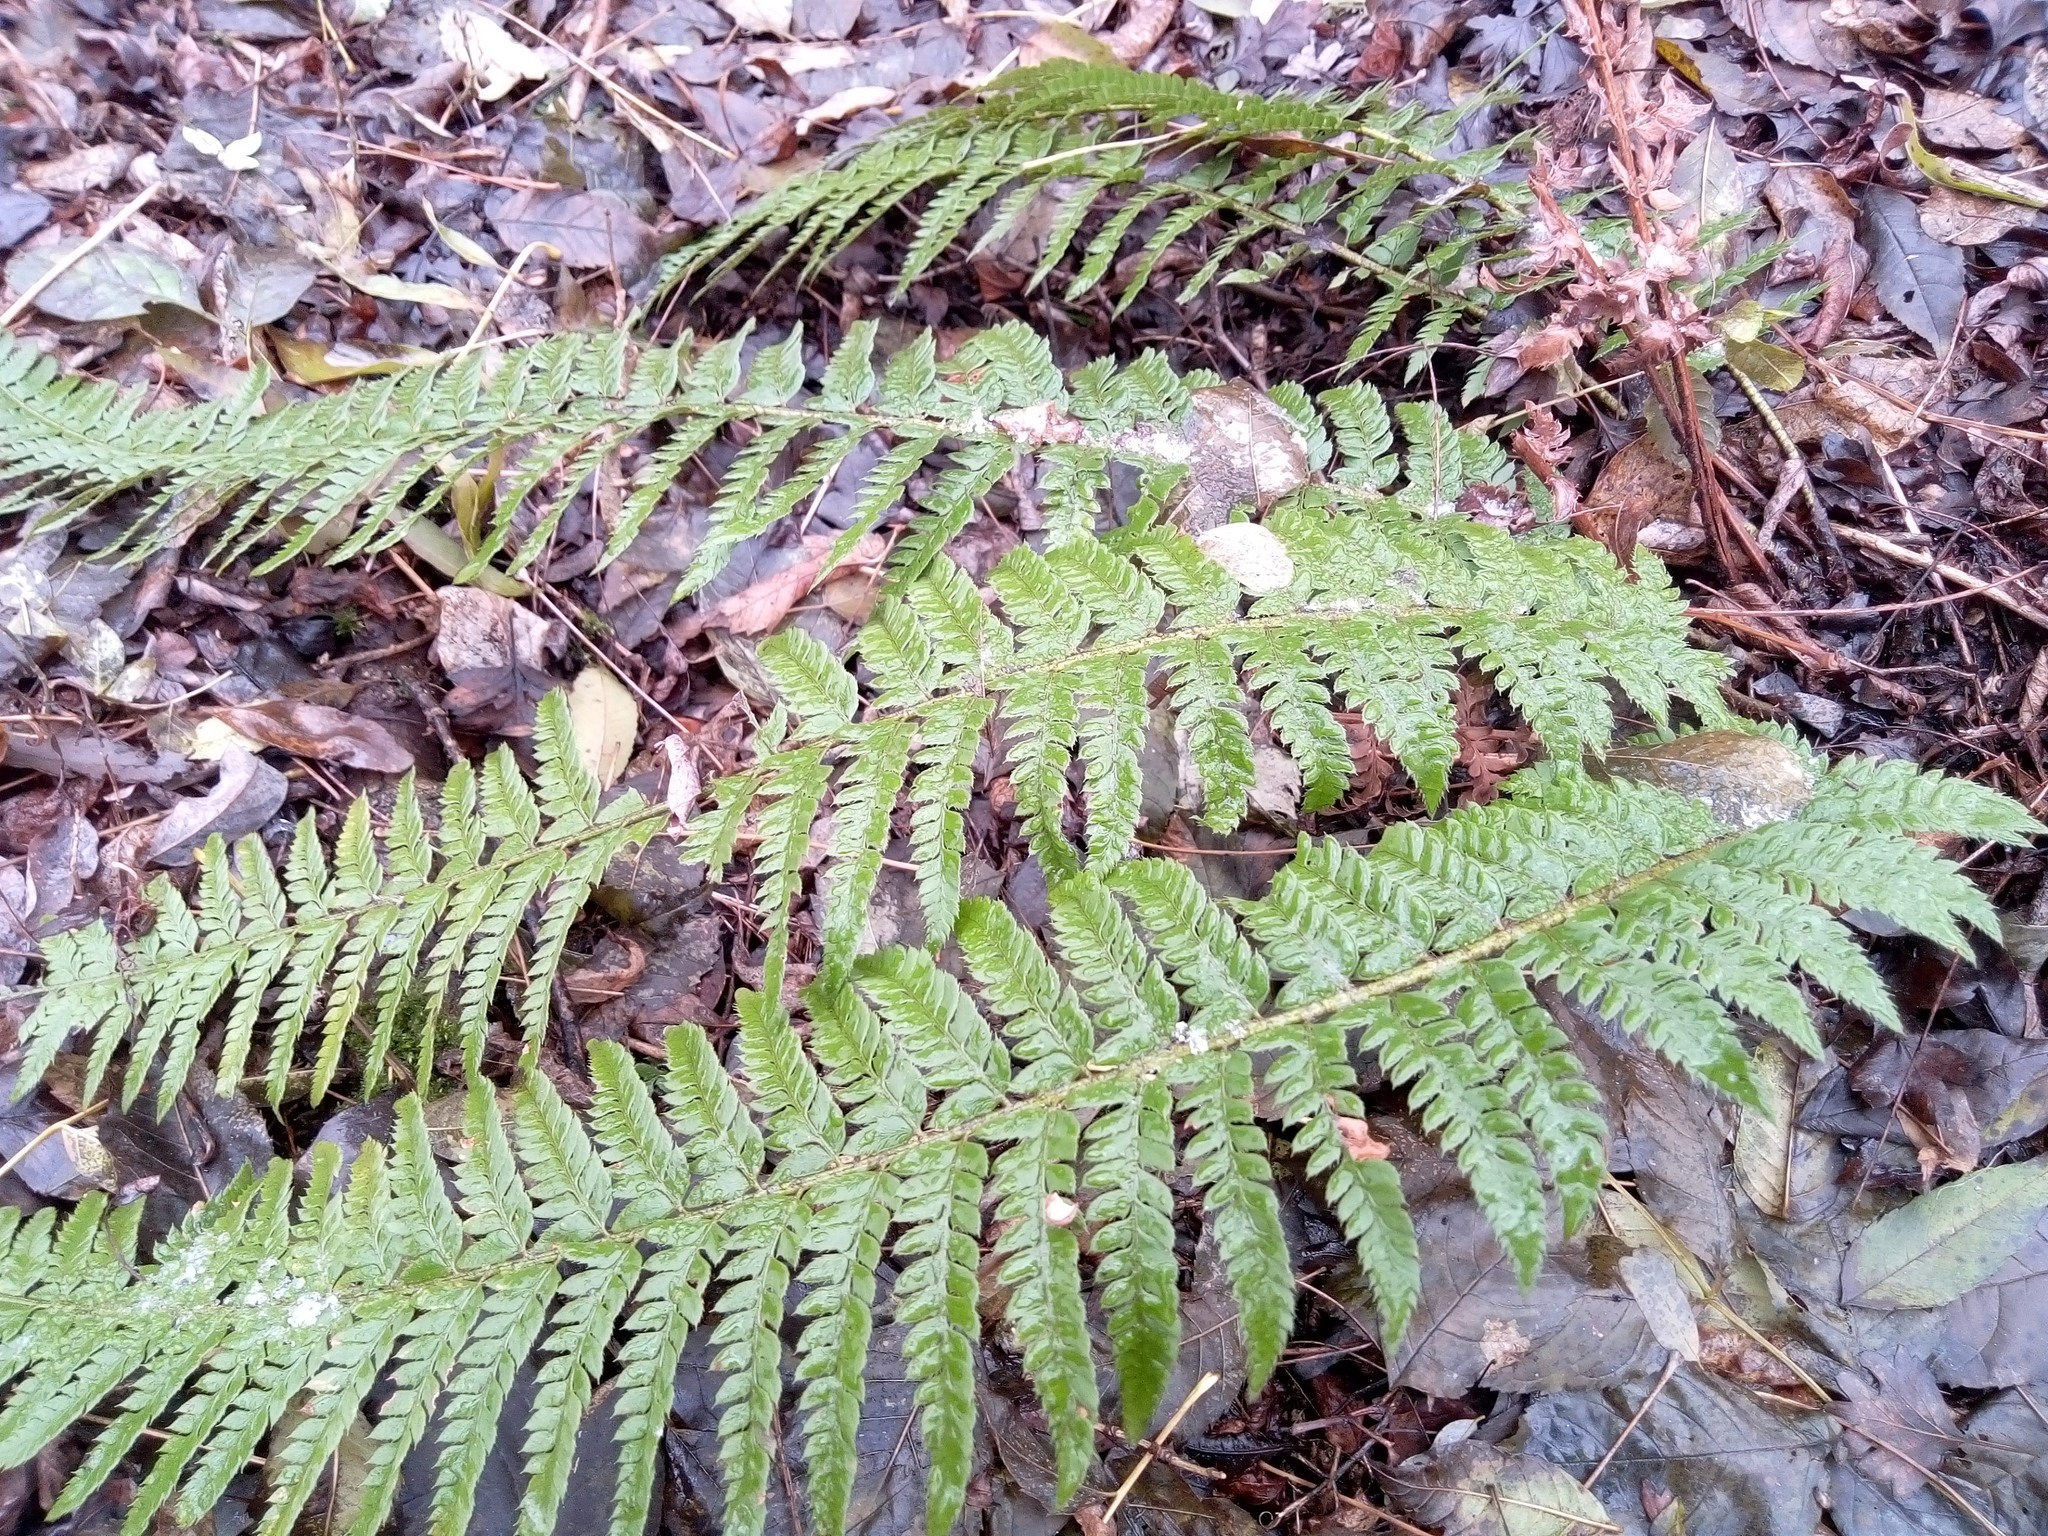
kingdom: Plantae
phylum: Tracheophyta
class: Polypodiopsida
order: Polypodiales
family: Dryopteridaceae
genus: Polystichum
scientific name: Polystichum aculeatum
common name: Hard shield-fern
